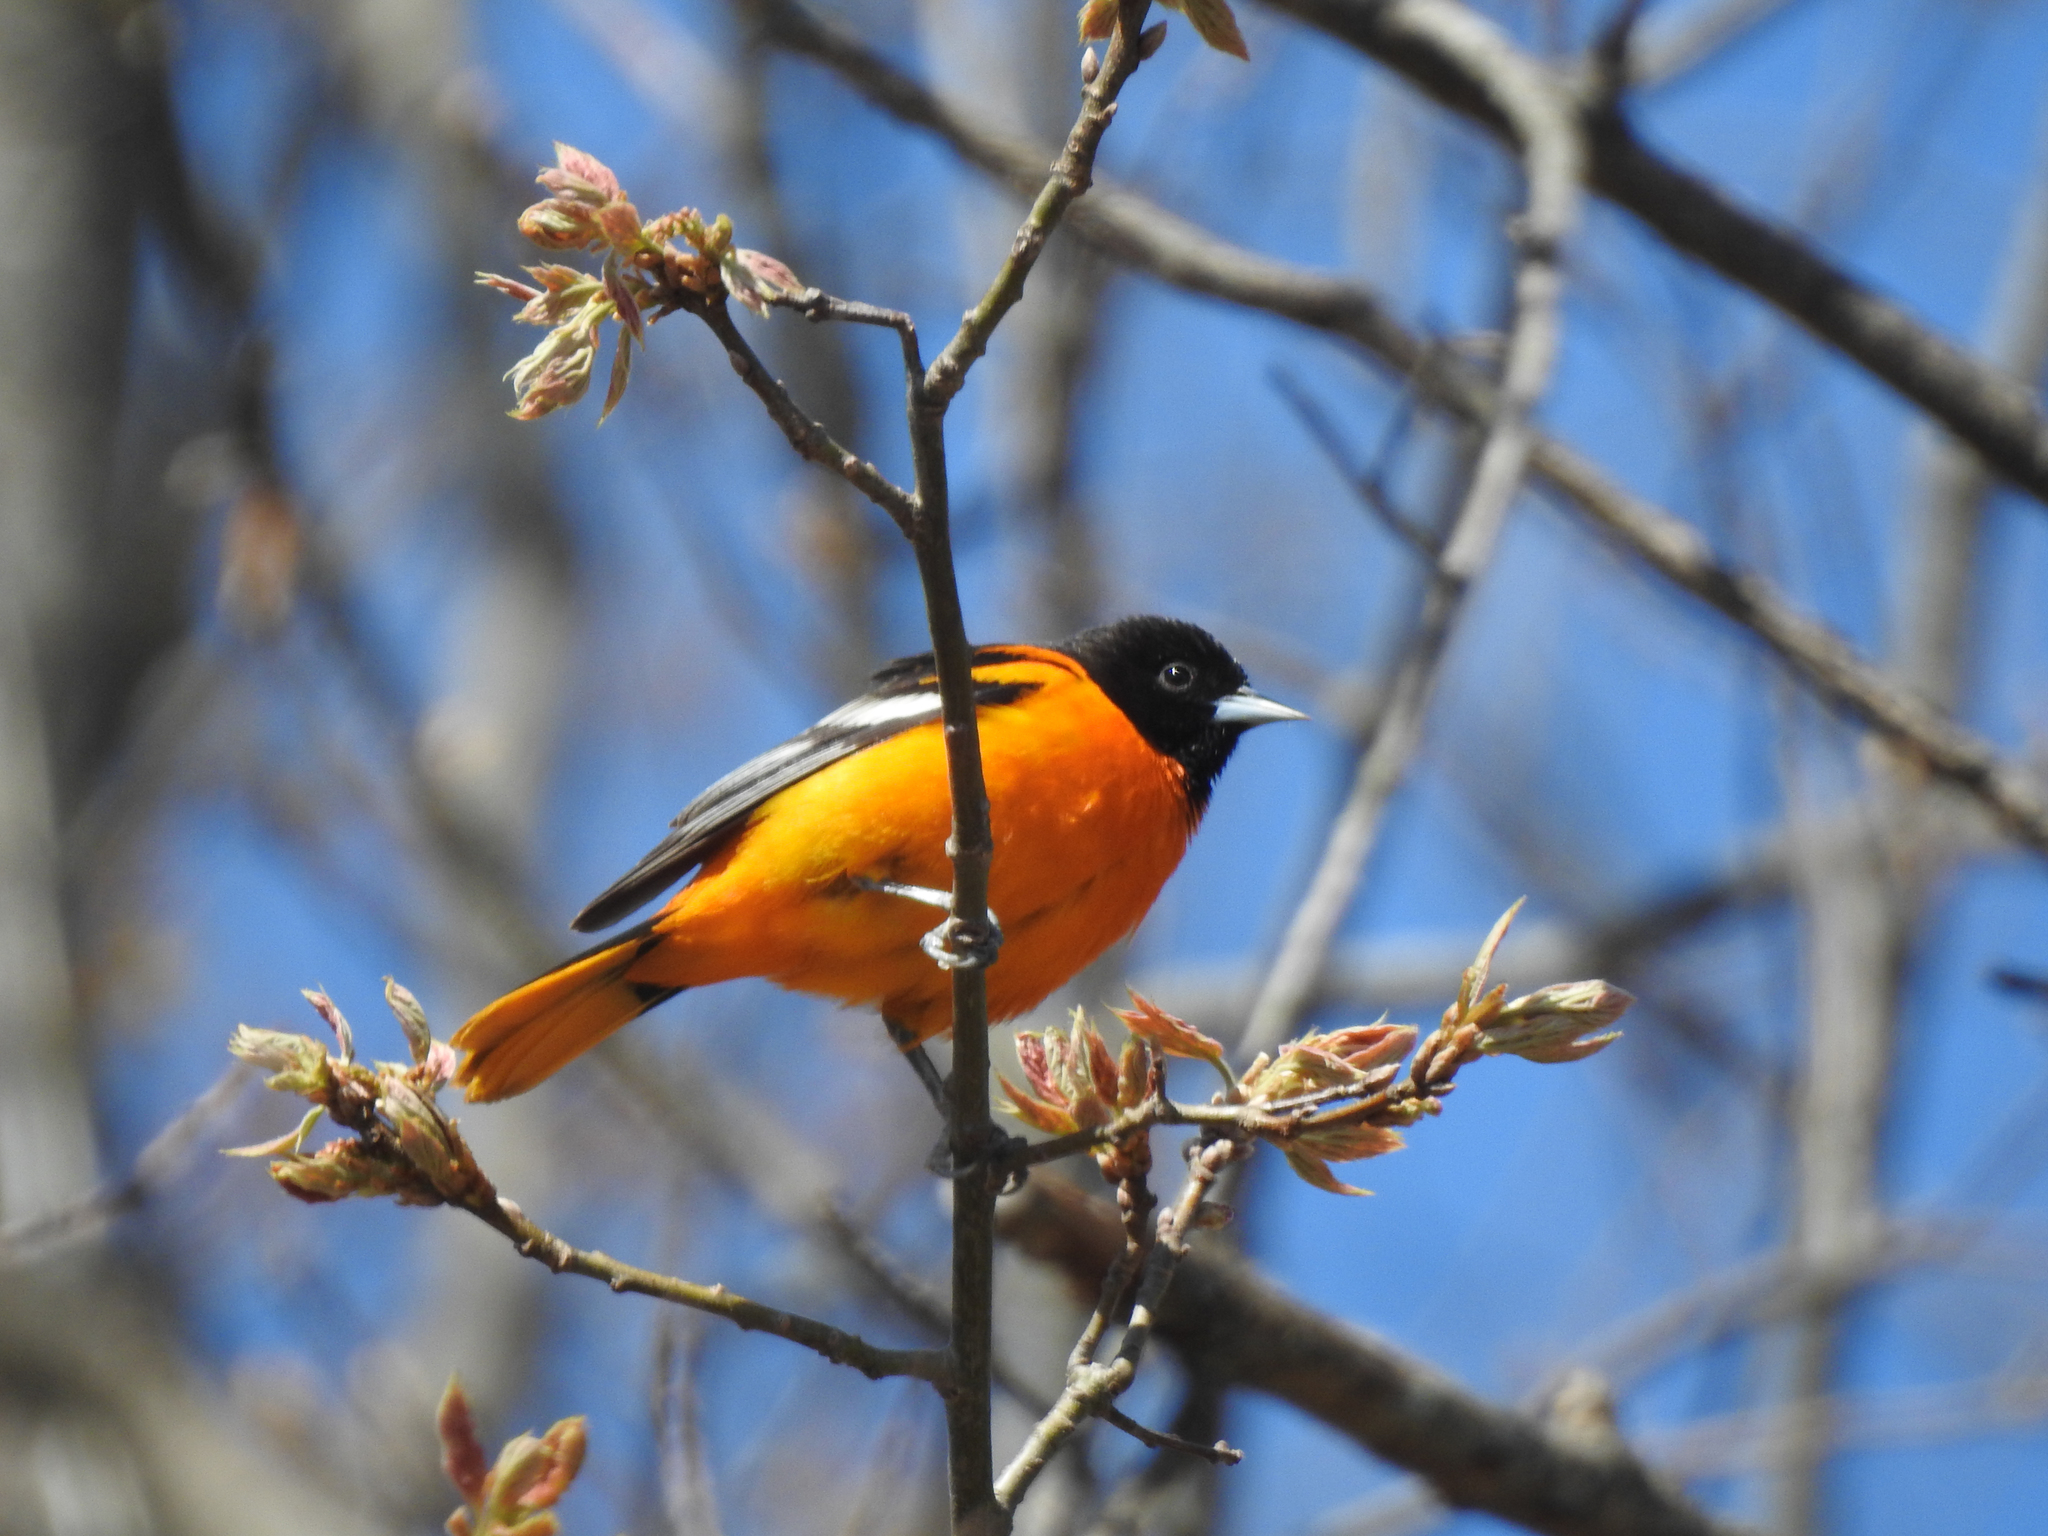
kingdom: Animalia
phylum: Chordata
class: Aves
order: Passeriformes
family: Icteridae
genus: Icterus
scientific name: Icterus galbula
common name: Baltimore oriole
